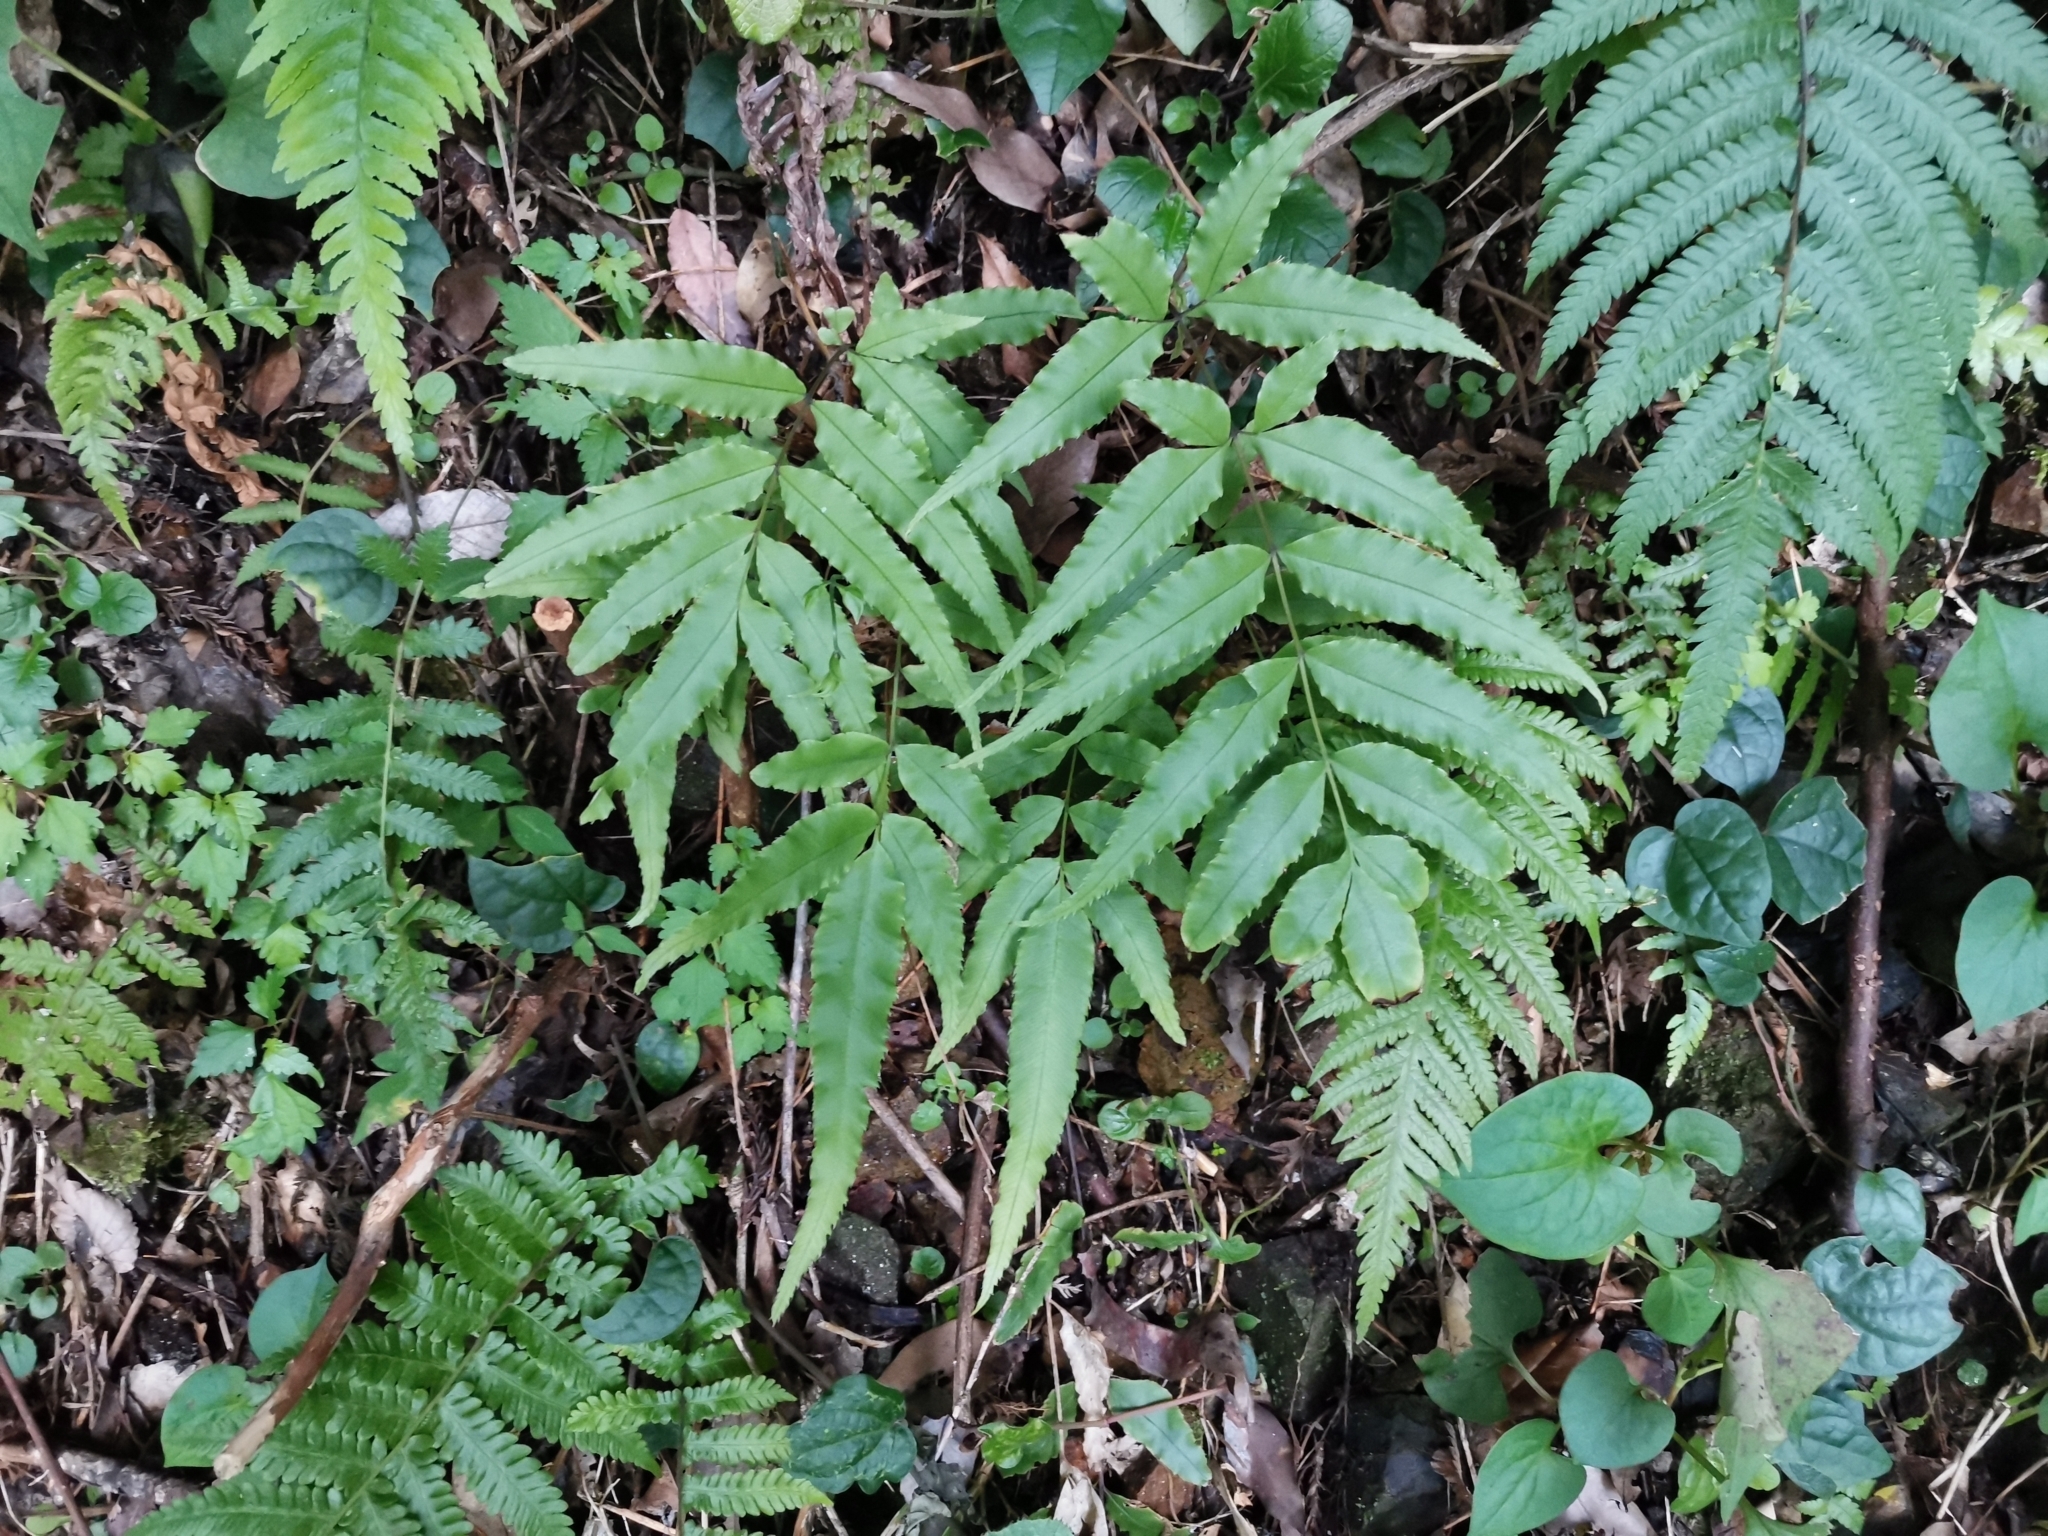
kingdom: Plantae
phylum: Tracheophyta
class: Polypodiopsida
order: Polypodiales
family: Pteridaceae
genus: Pteris
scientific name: Pteris cretica
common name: Ribbon fern
